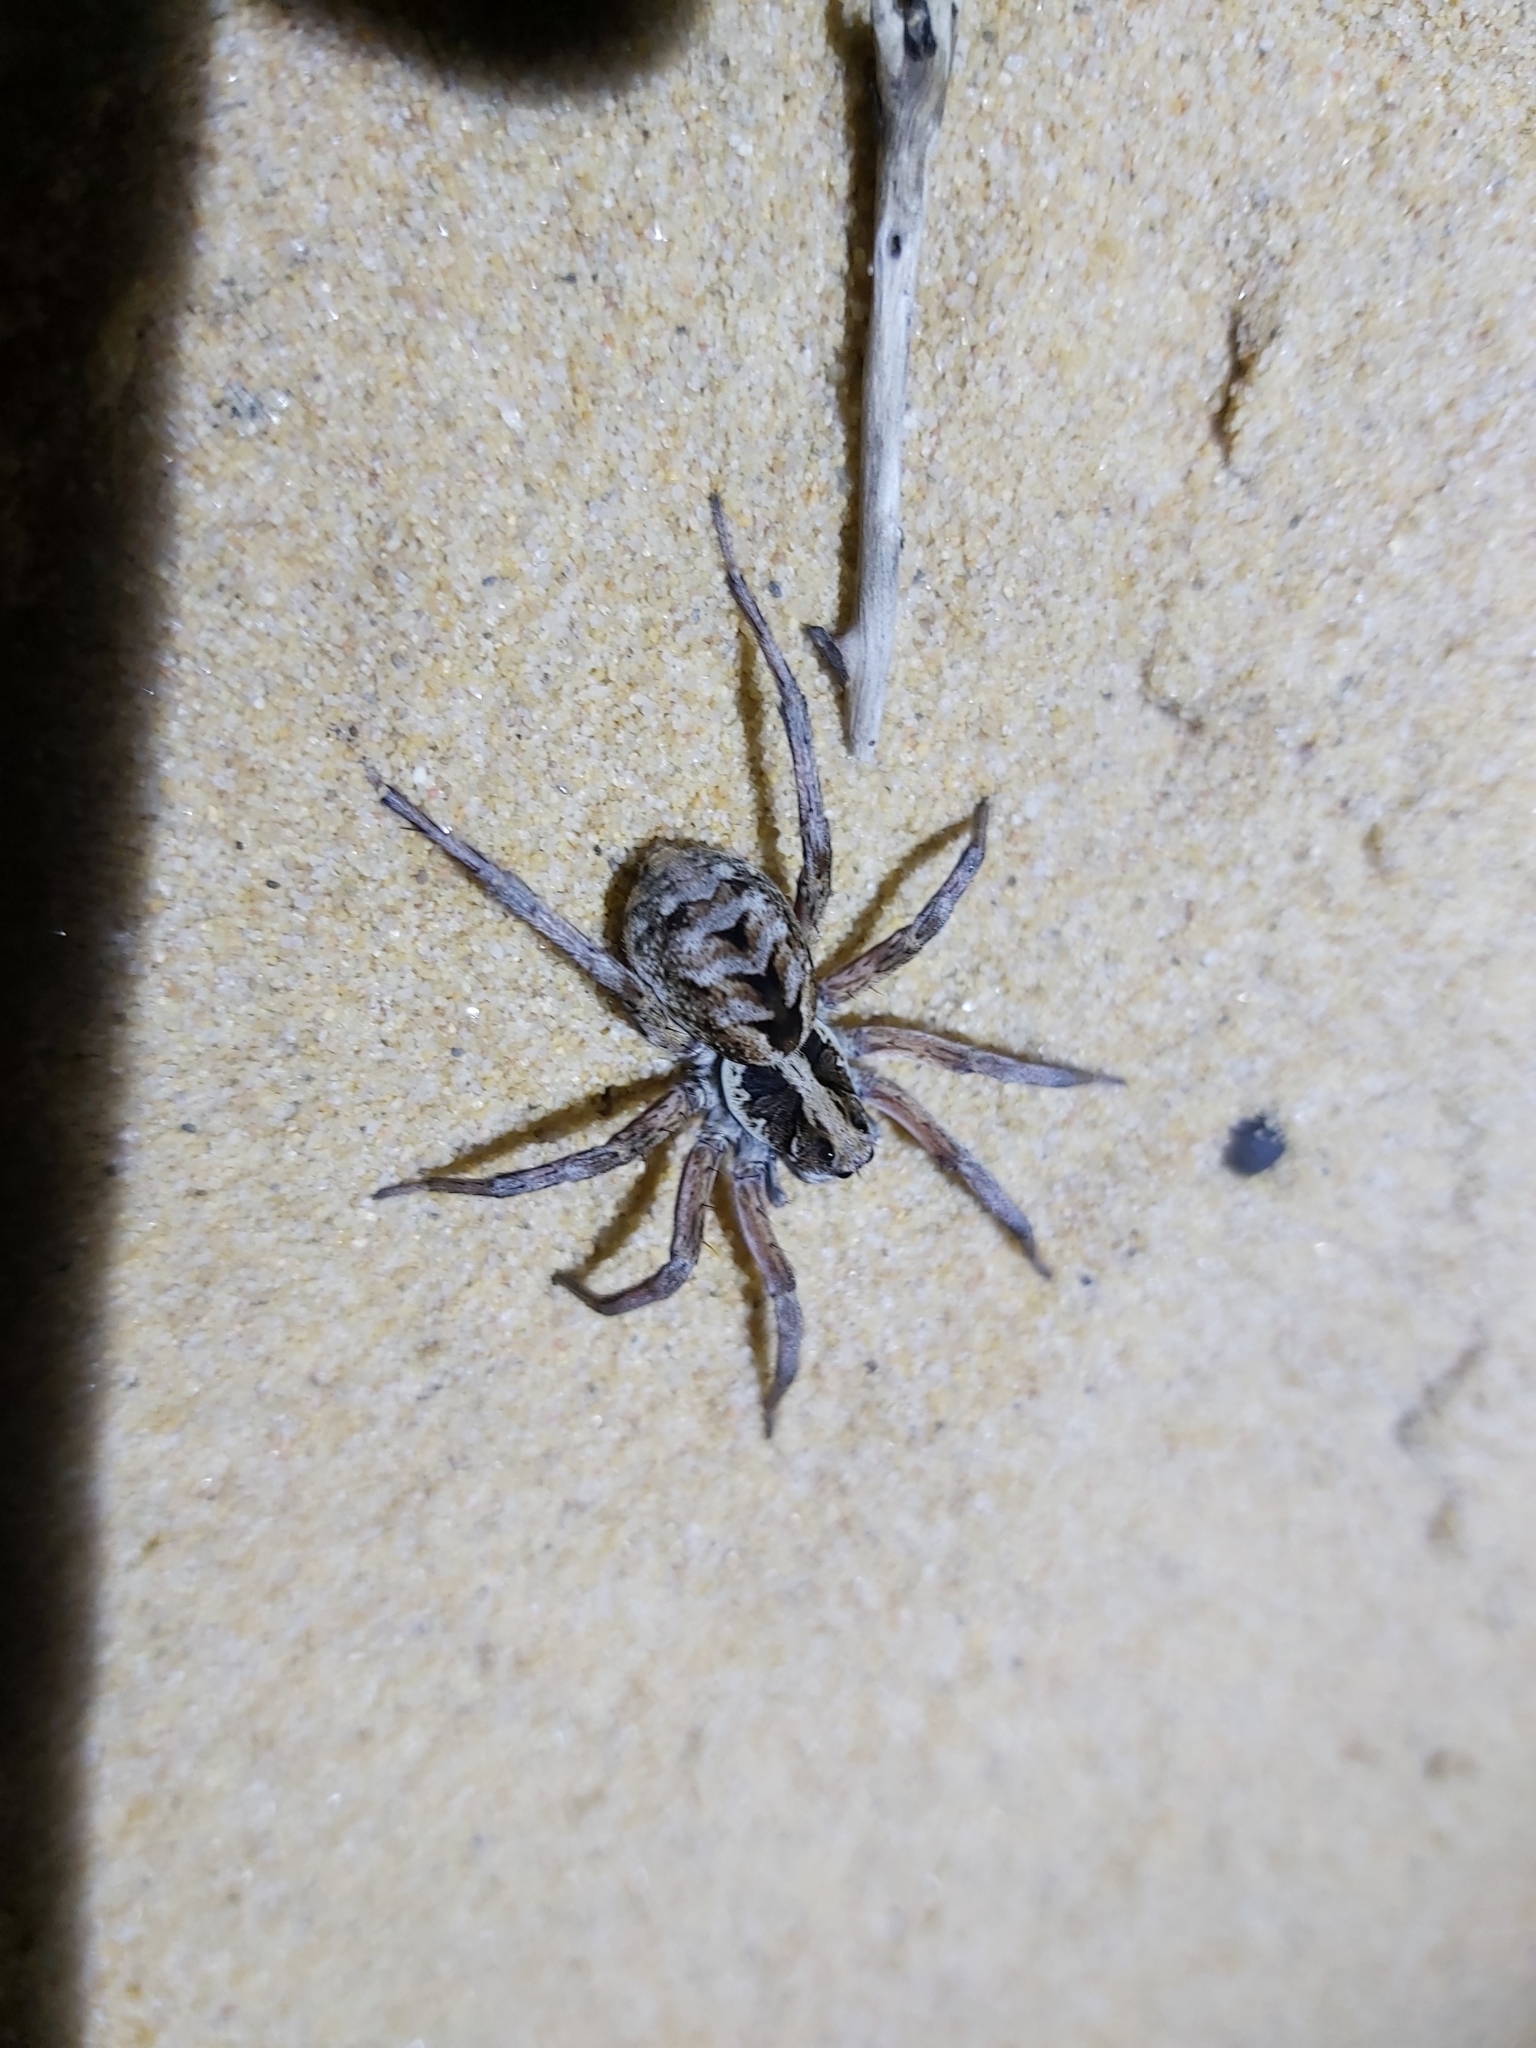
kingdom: Animalia
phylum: Arthropoda
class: Arachnida
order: Araneae
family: Lycosidae
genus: Venator
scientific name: Venator spenceri
